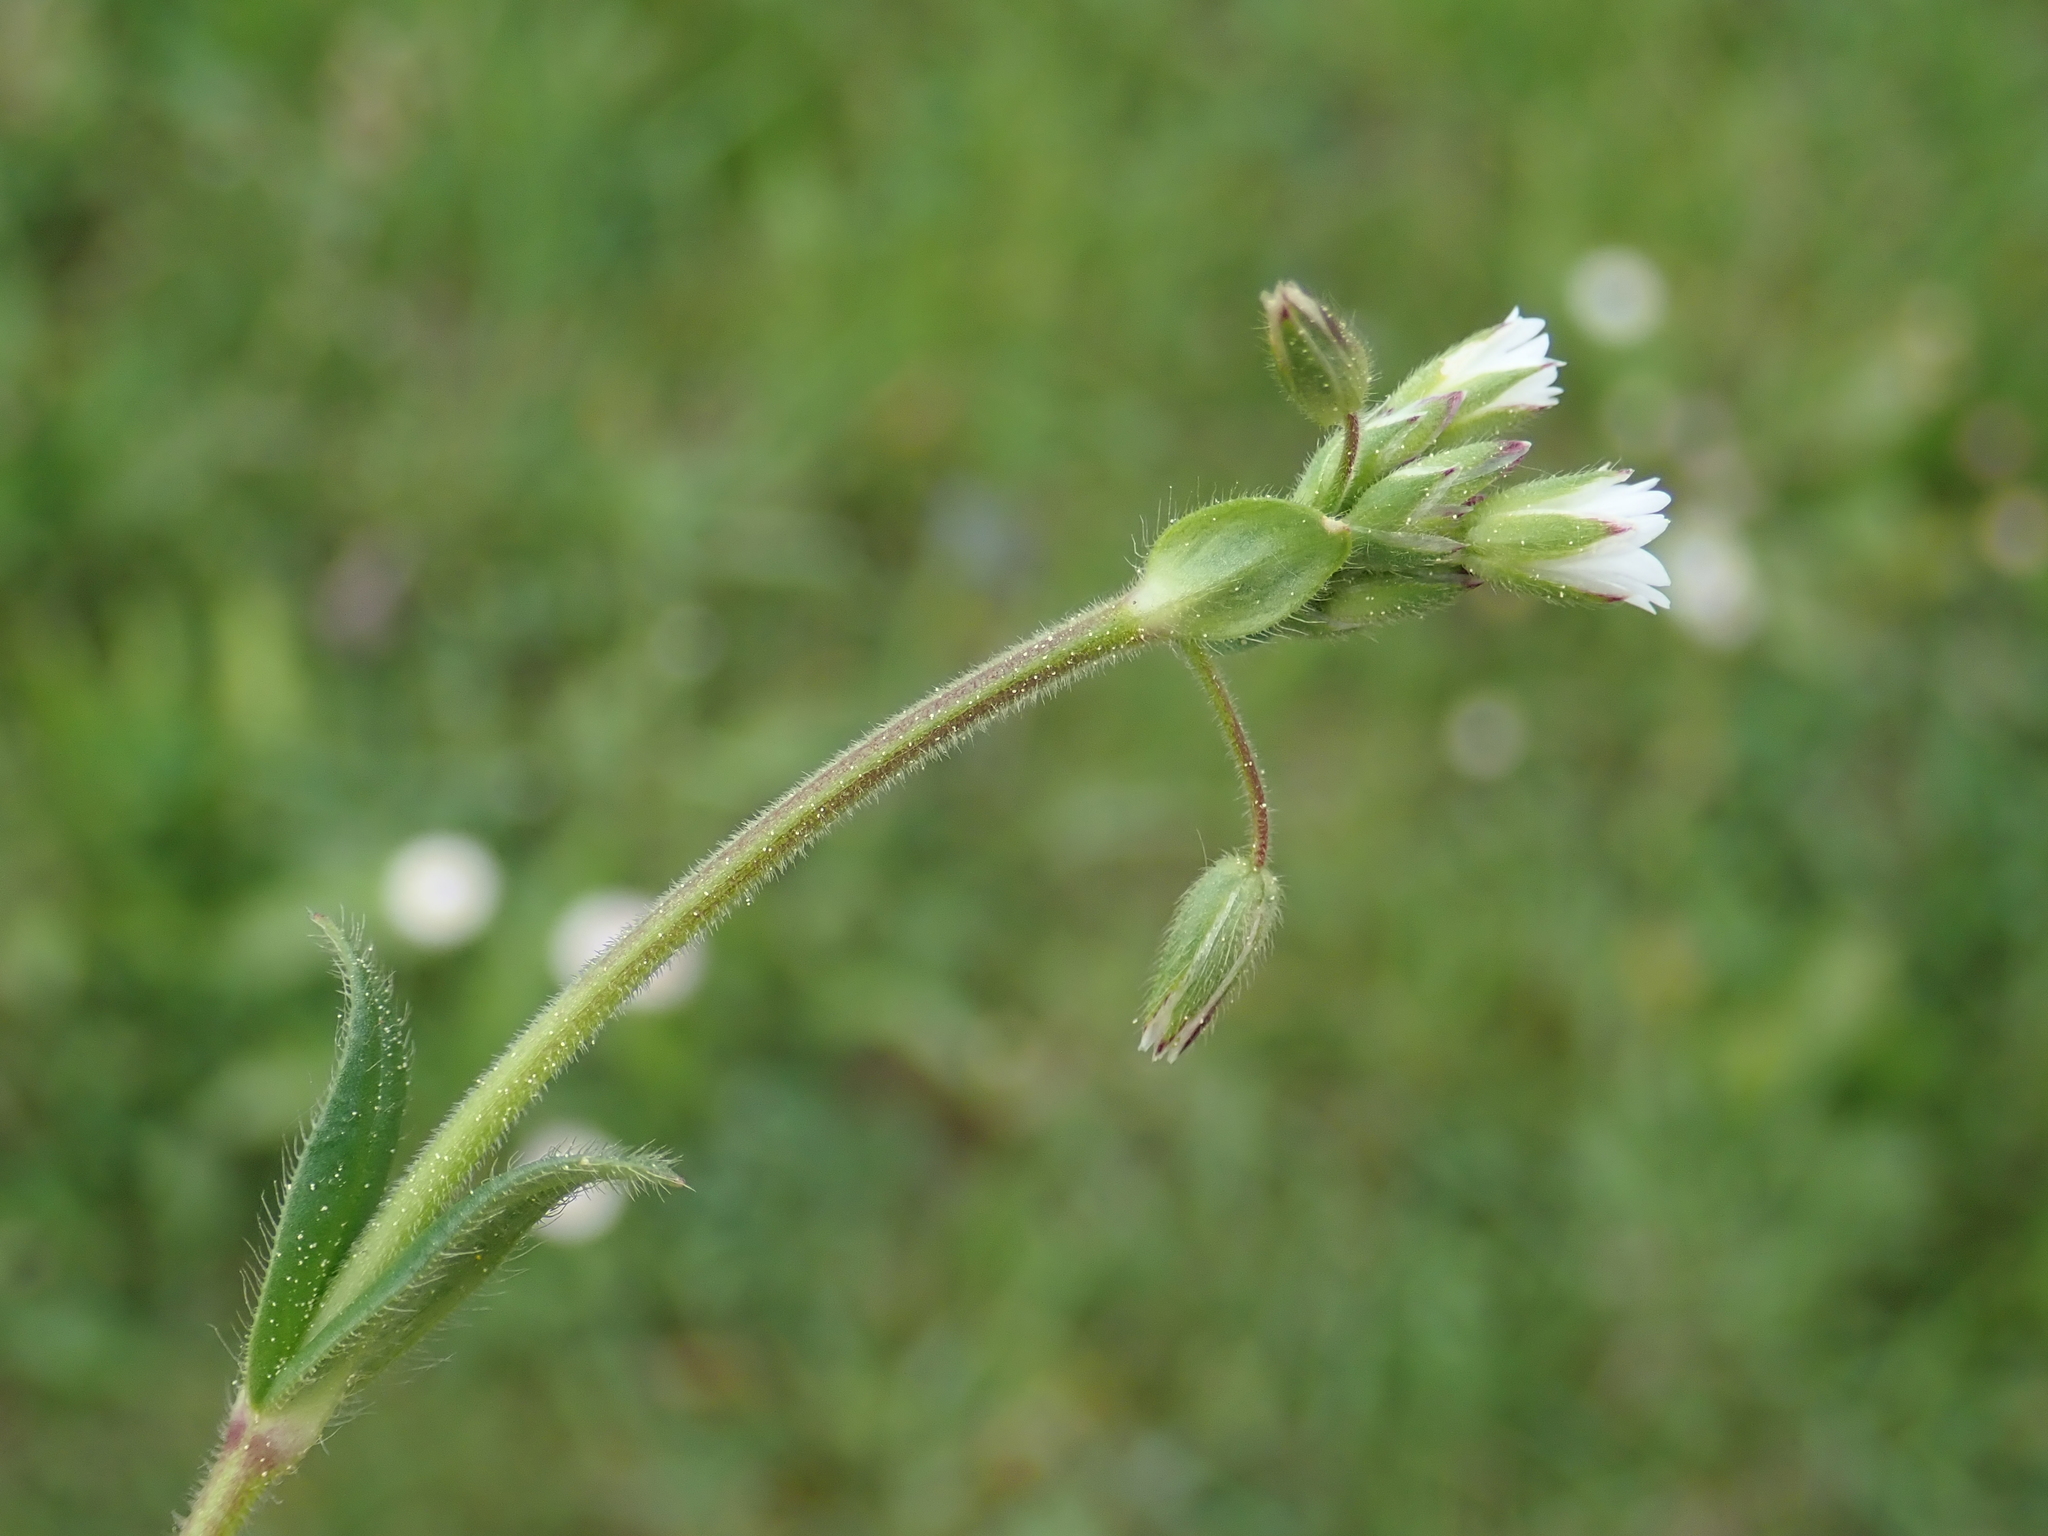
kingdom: Plantae
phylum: Tracheophyta
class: Magnoliopsida
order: Caryophyllales
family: Caryophyllaceae
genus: Cerastium
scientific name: Cerastium holosteoides
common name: Big chickweed
